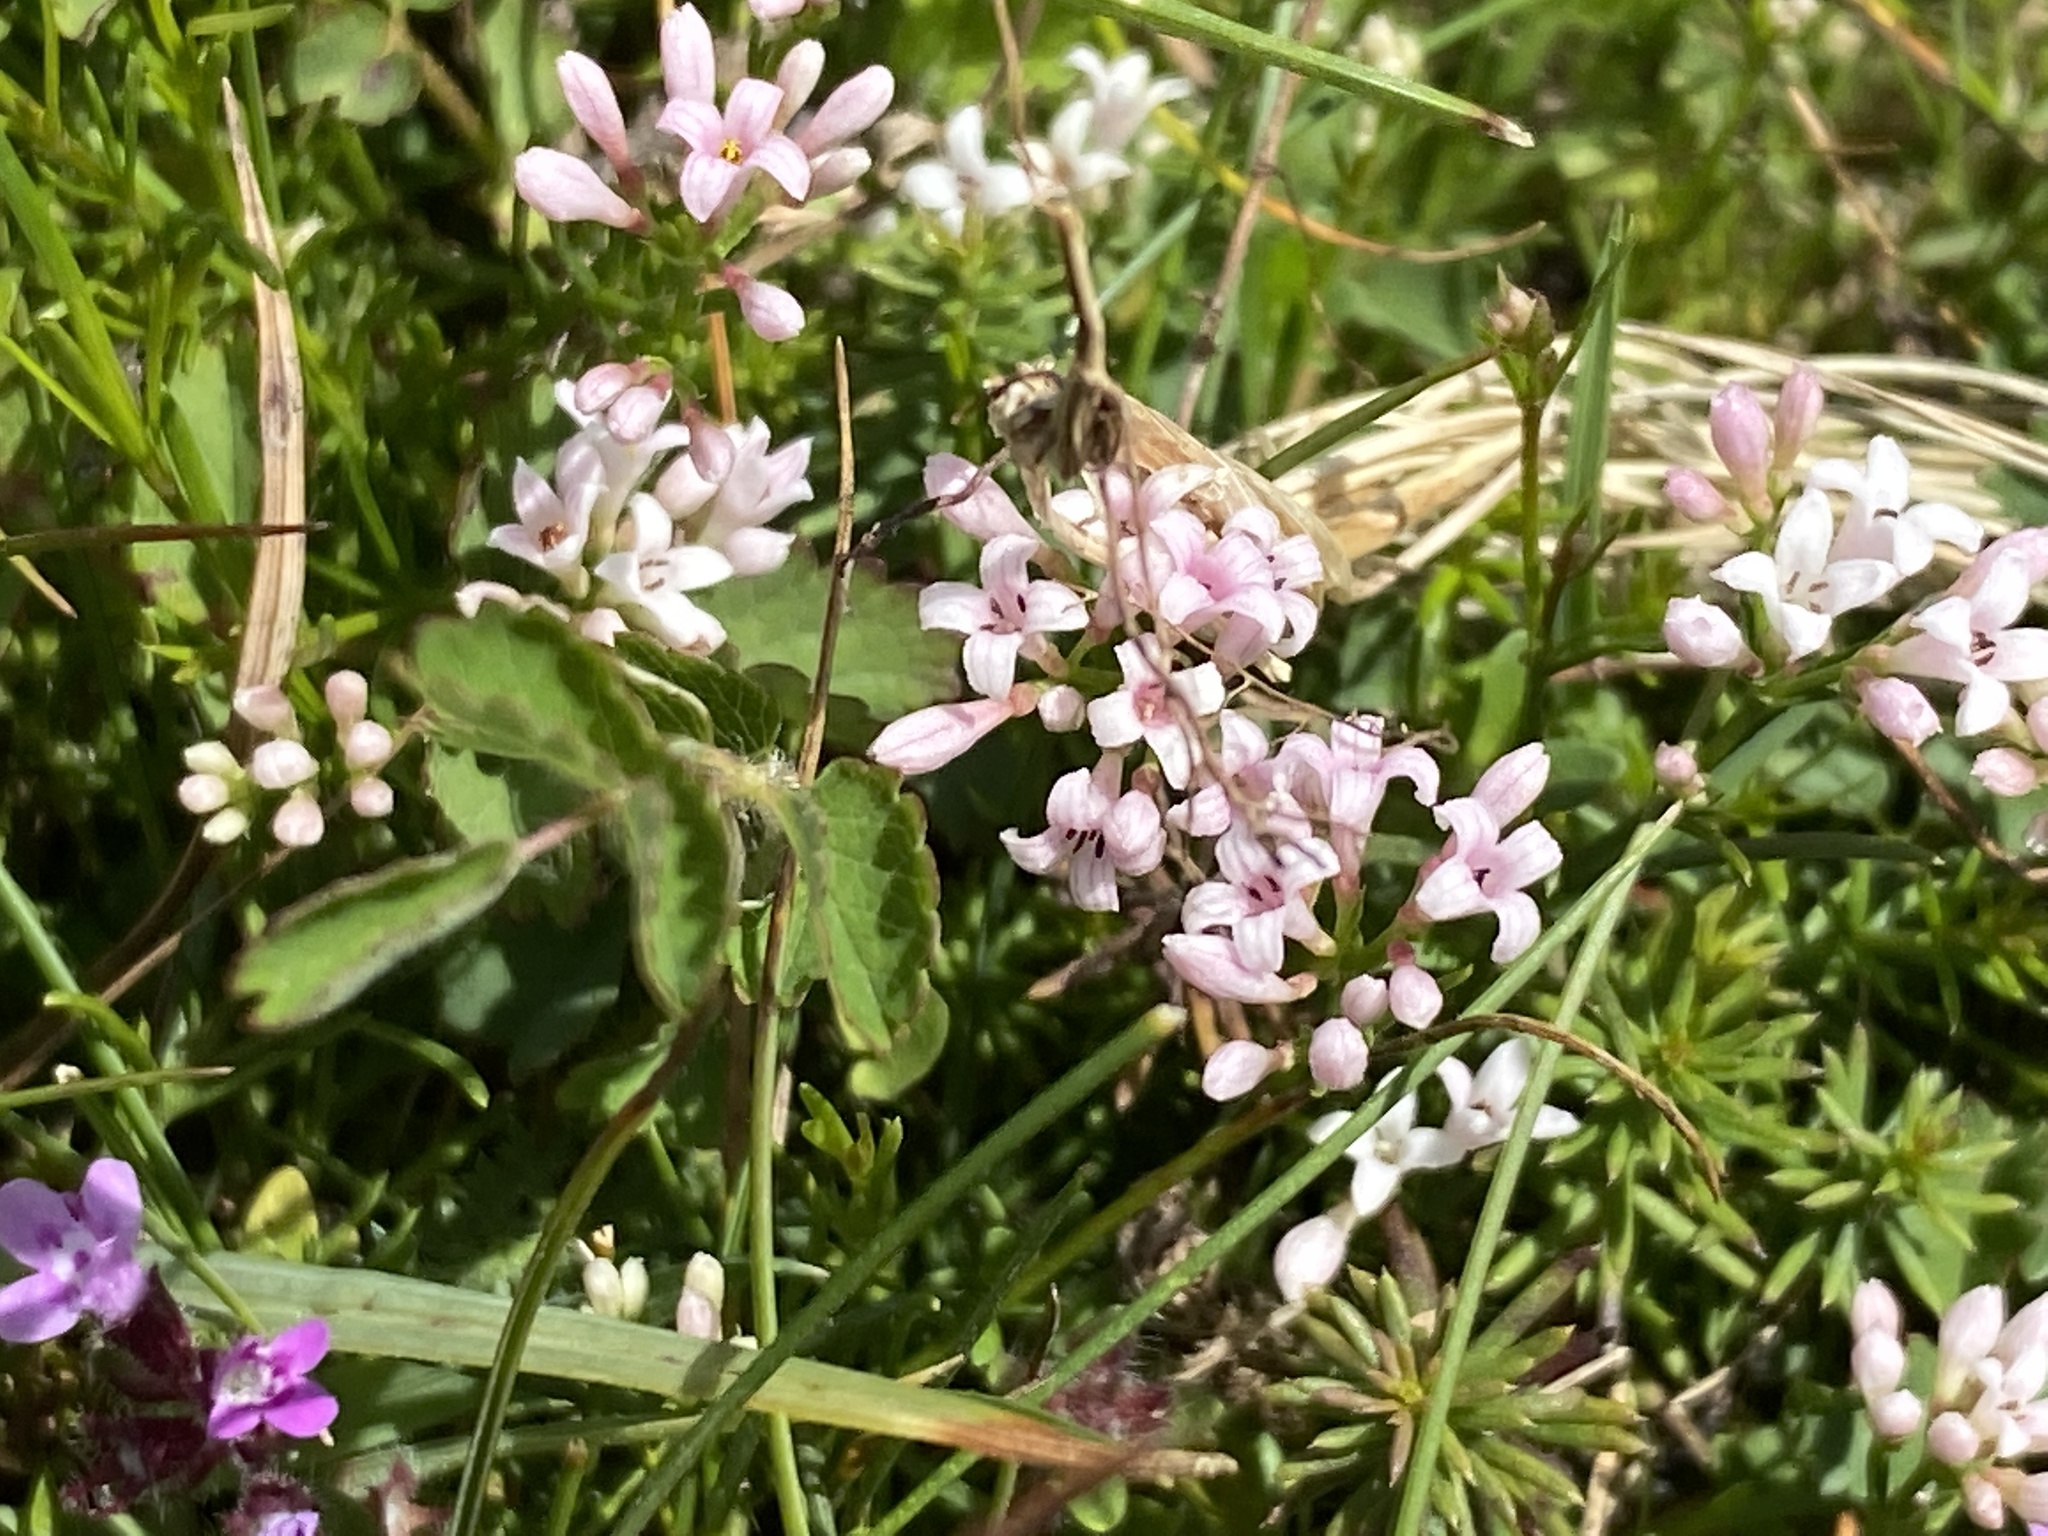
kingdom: Plantae
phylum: Tracheophyta
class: Magnoliopsida
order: Gentianales
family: Rubiaceae
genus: Cynanchica
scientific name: Cynanchica pyrenaica
